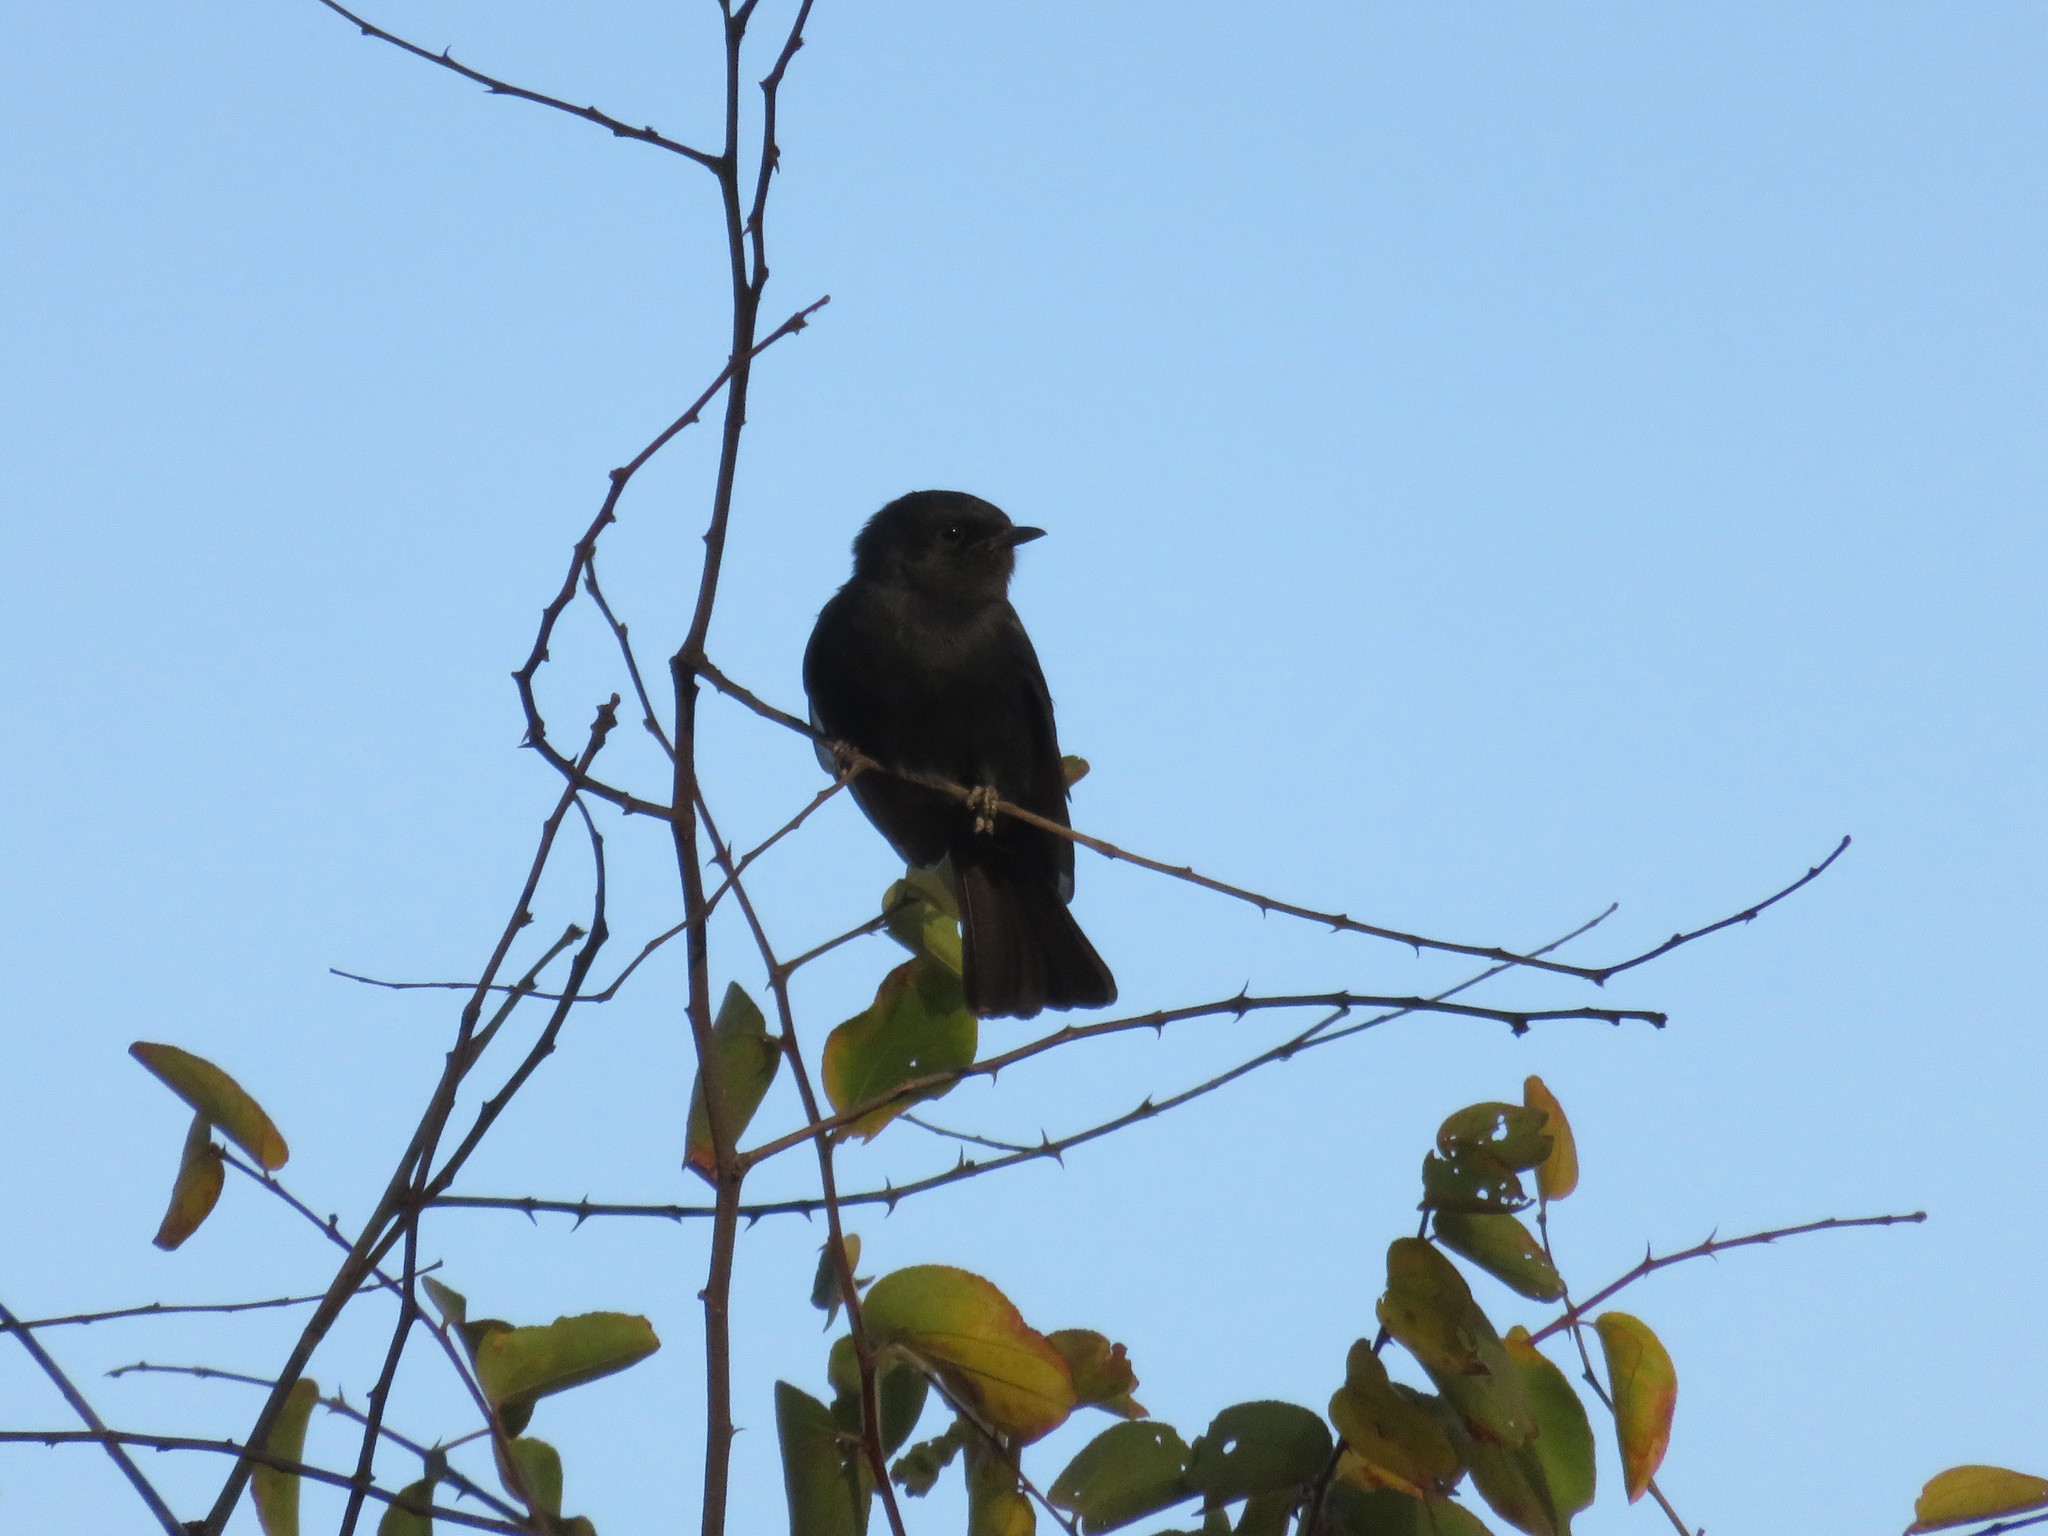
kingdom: Animalia
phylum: Chordata
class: Aves
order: Passeriformes
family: Muscicapidae
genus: Melaenornis
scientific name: Melaenornis pammelaina
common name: Southern black flycatcher
